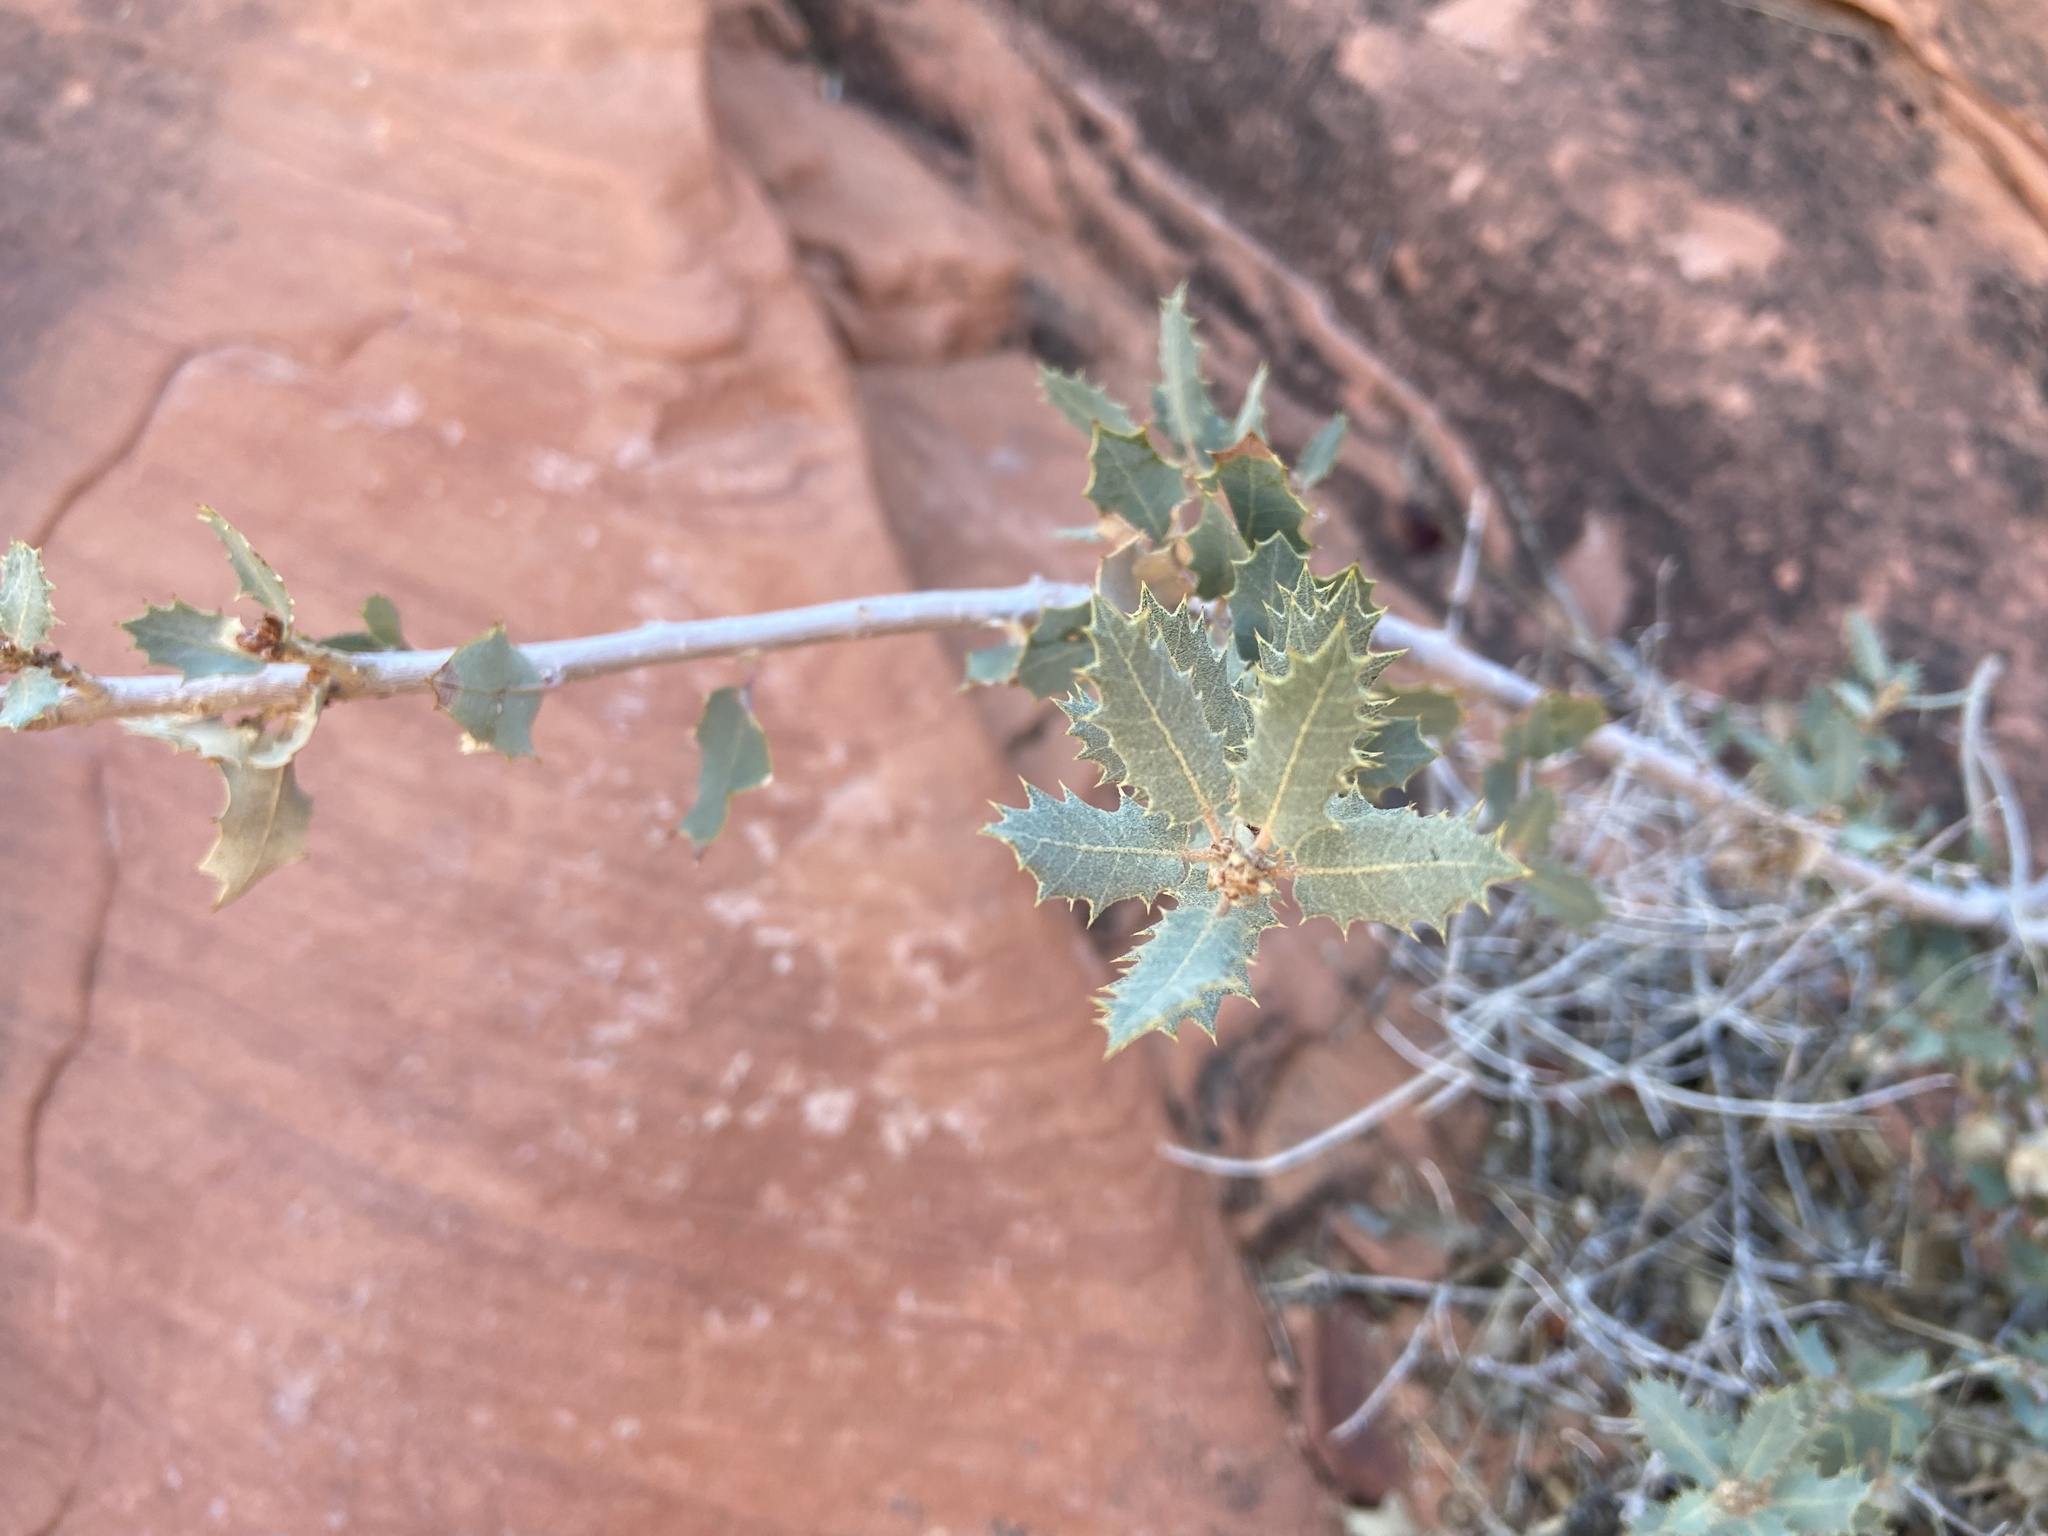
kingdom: Plantae
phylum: Tracheophyta
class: Magnoliopsida
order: Fagales
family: Fagaceae
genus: Quercus
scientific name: Quercus turbinella
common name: Sonoran scrub oak
